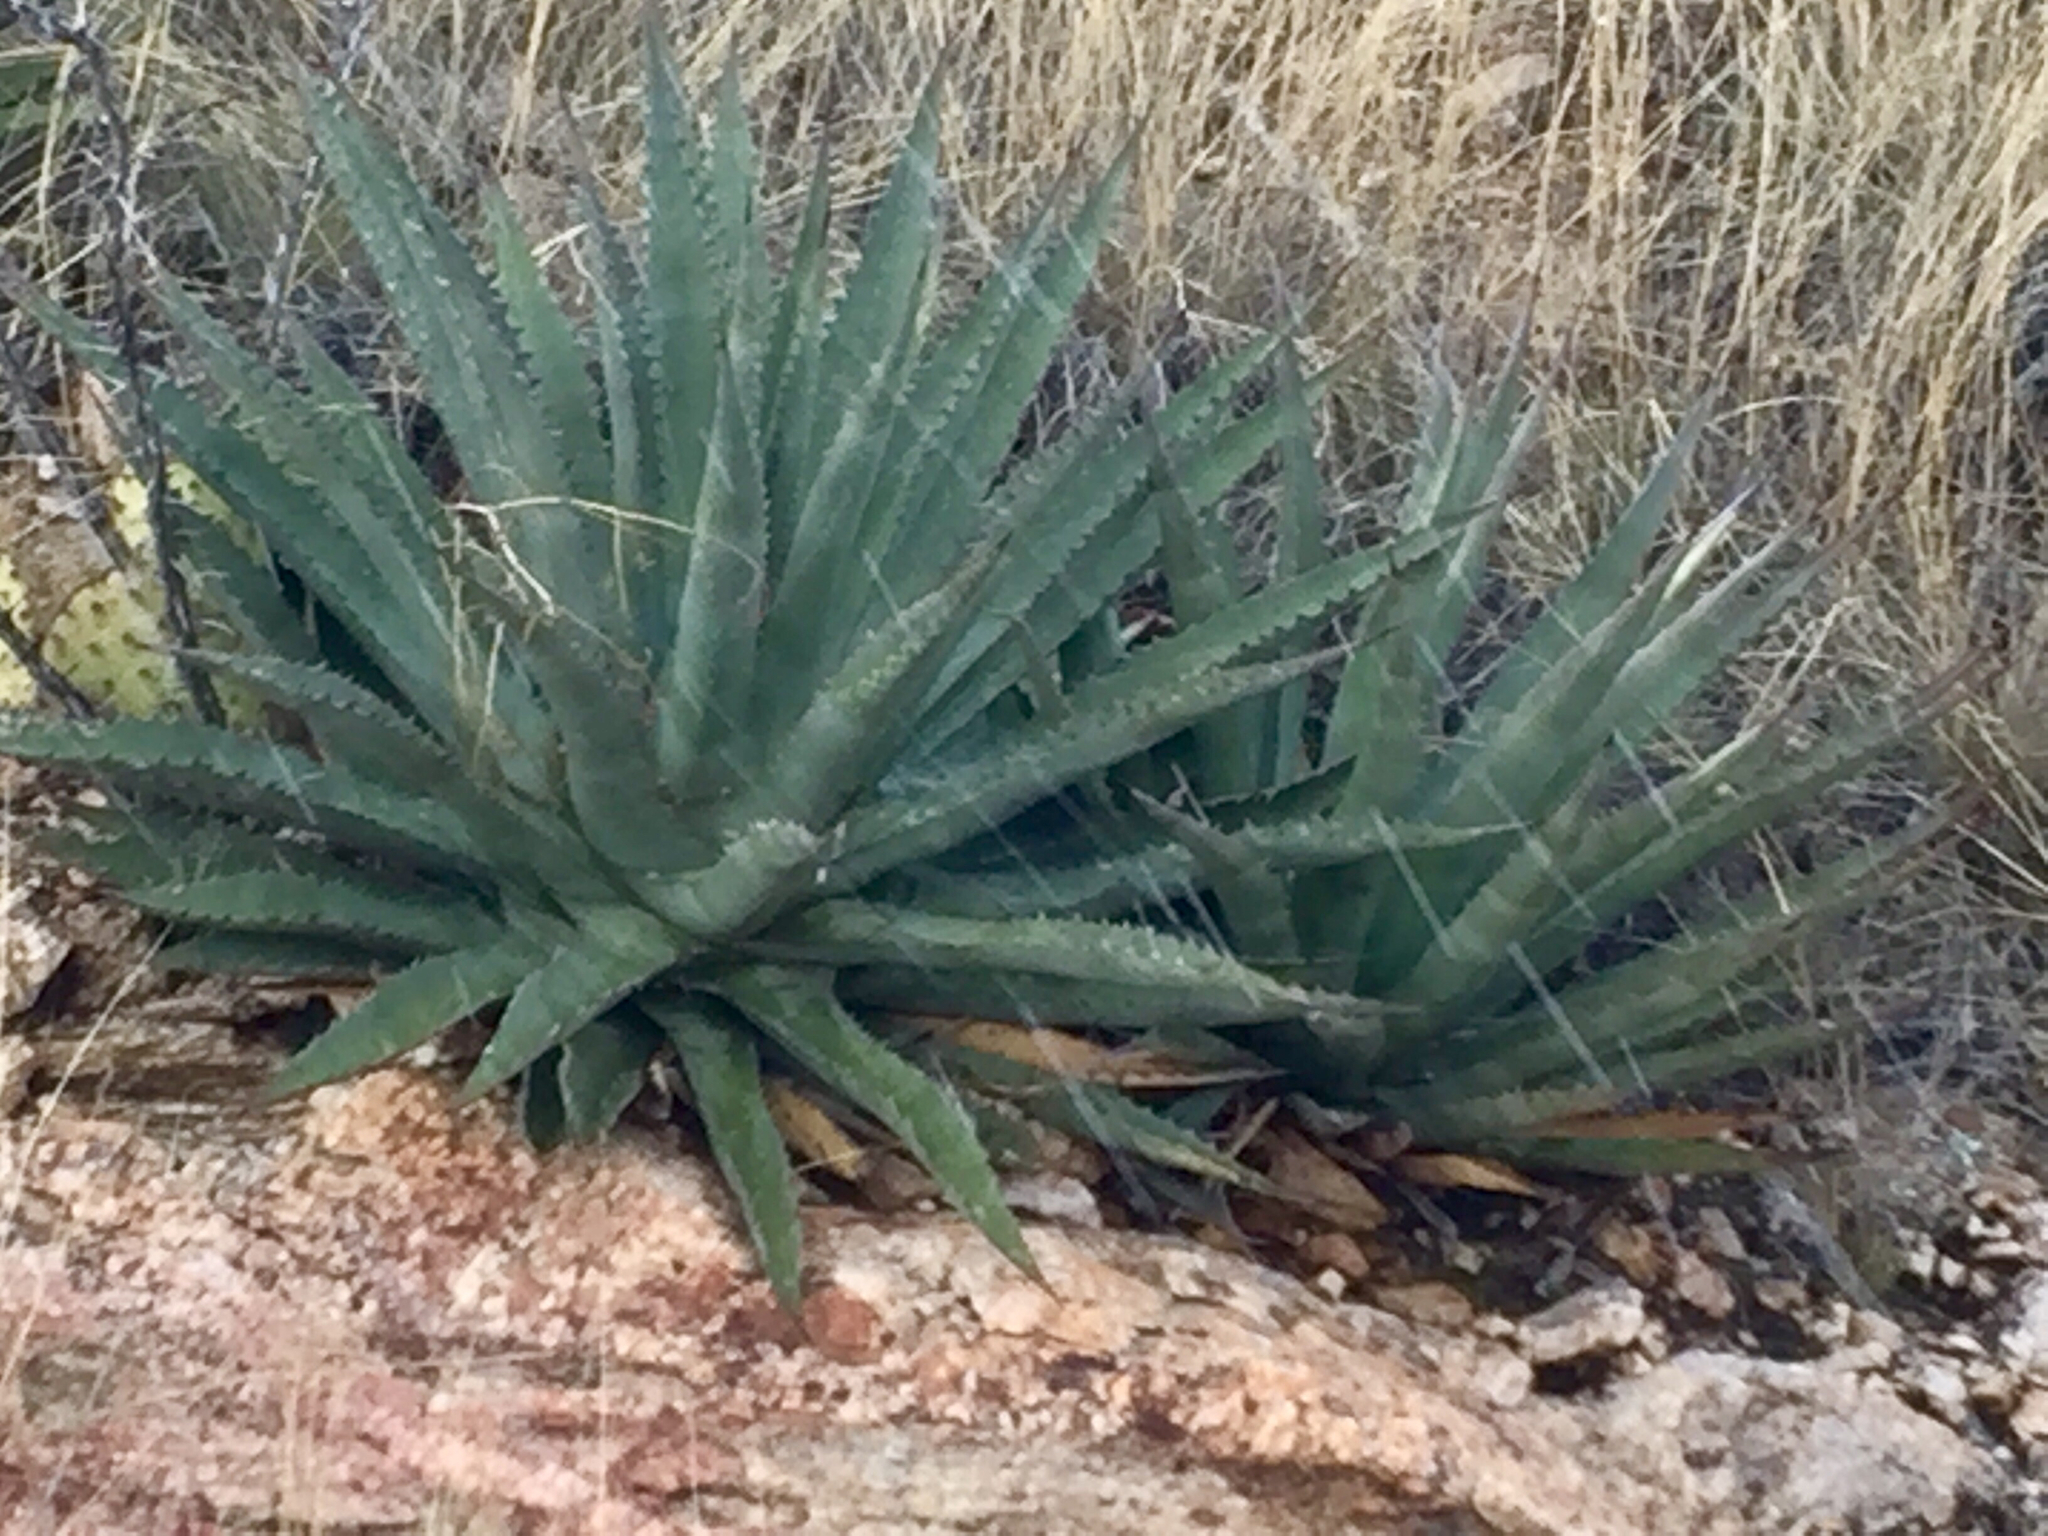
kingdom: Plantae
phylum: Tracheophyta
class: Liliopsida
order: Asparagales
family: Asparagaceae
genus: Agave
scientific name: Agave chrysantha
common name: Golden-flowered agave
